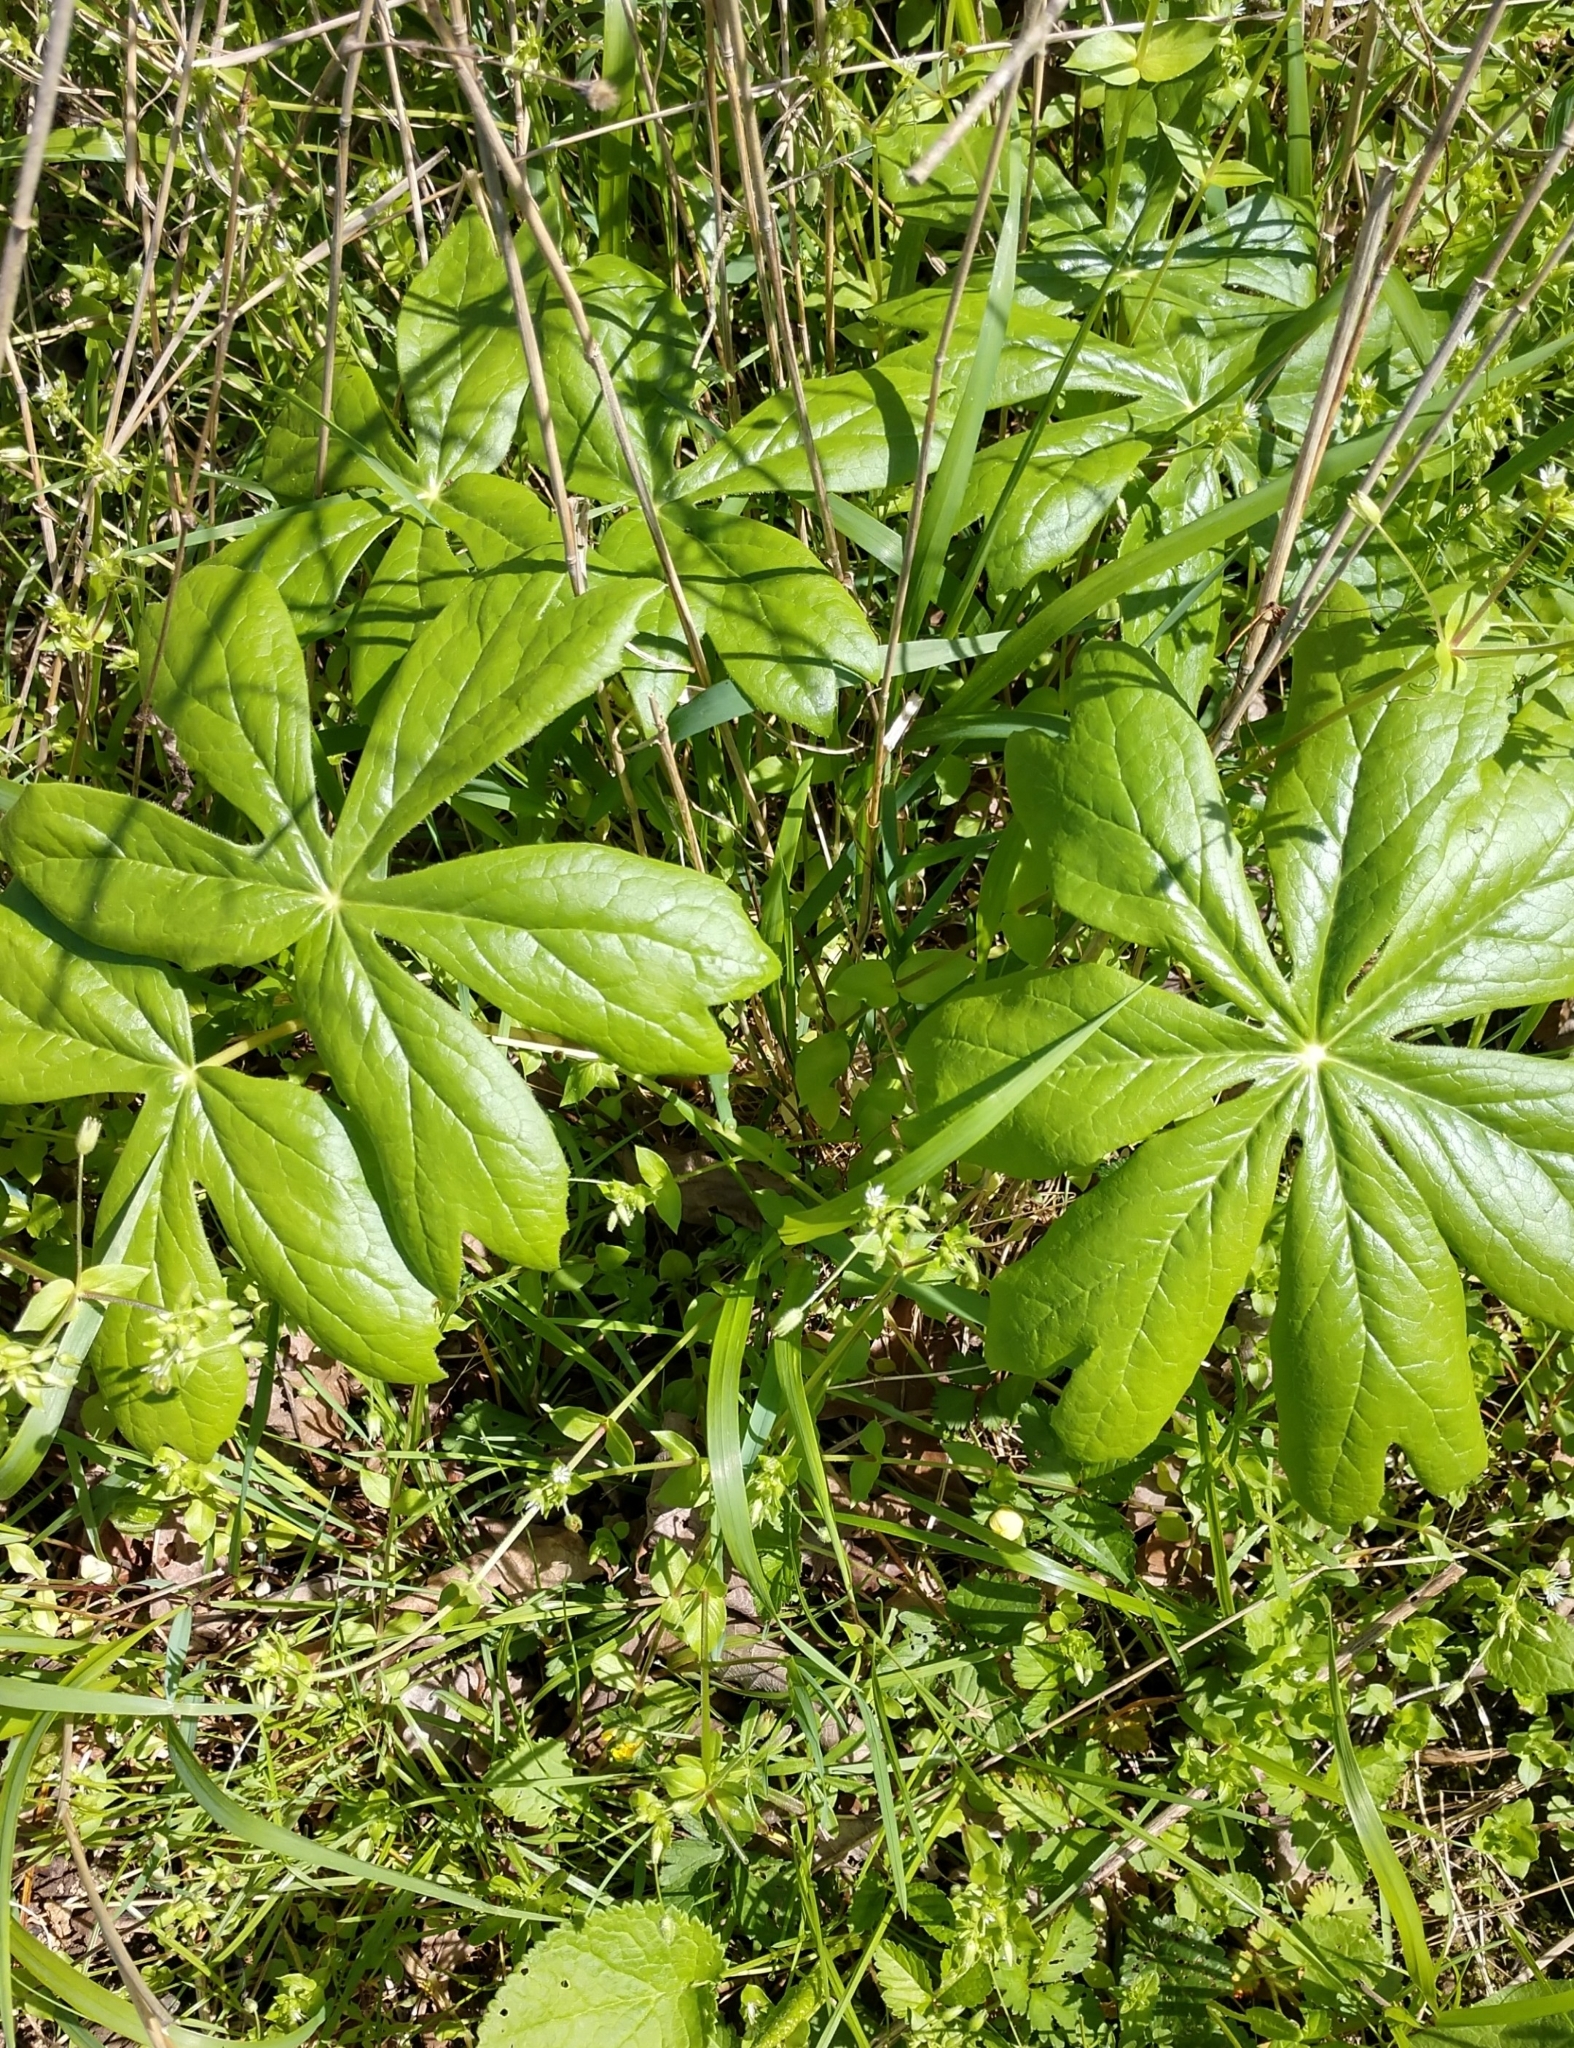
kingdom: Plantae
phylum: Tracheophyta
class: Magnoliopsida
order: Ranunculales
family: Berberidaceae
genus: Podophyllum
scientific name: Podophyllum peltatum
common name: Wild mandrake
